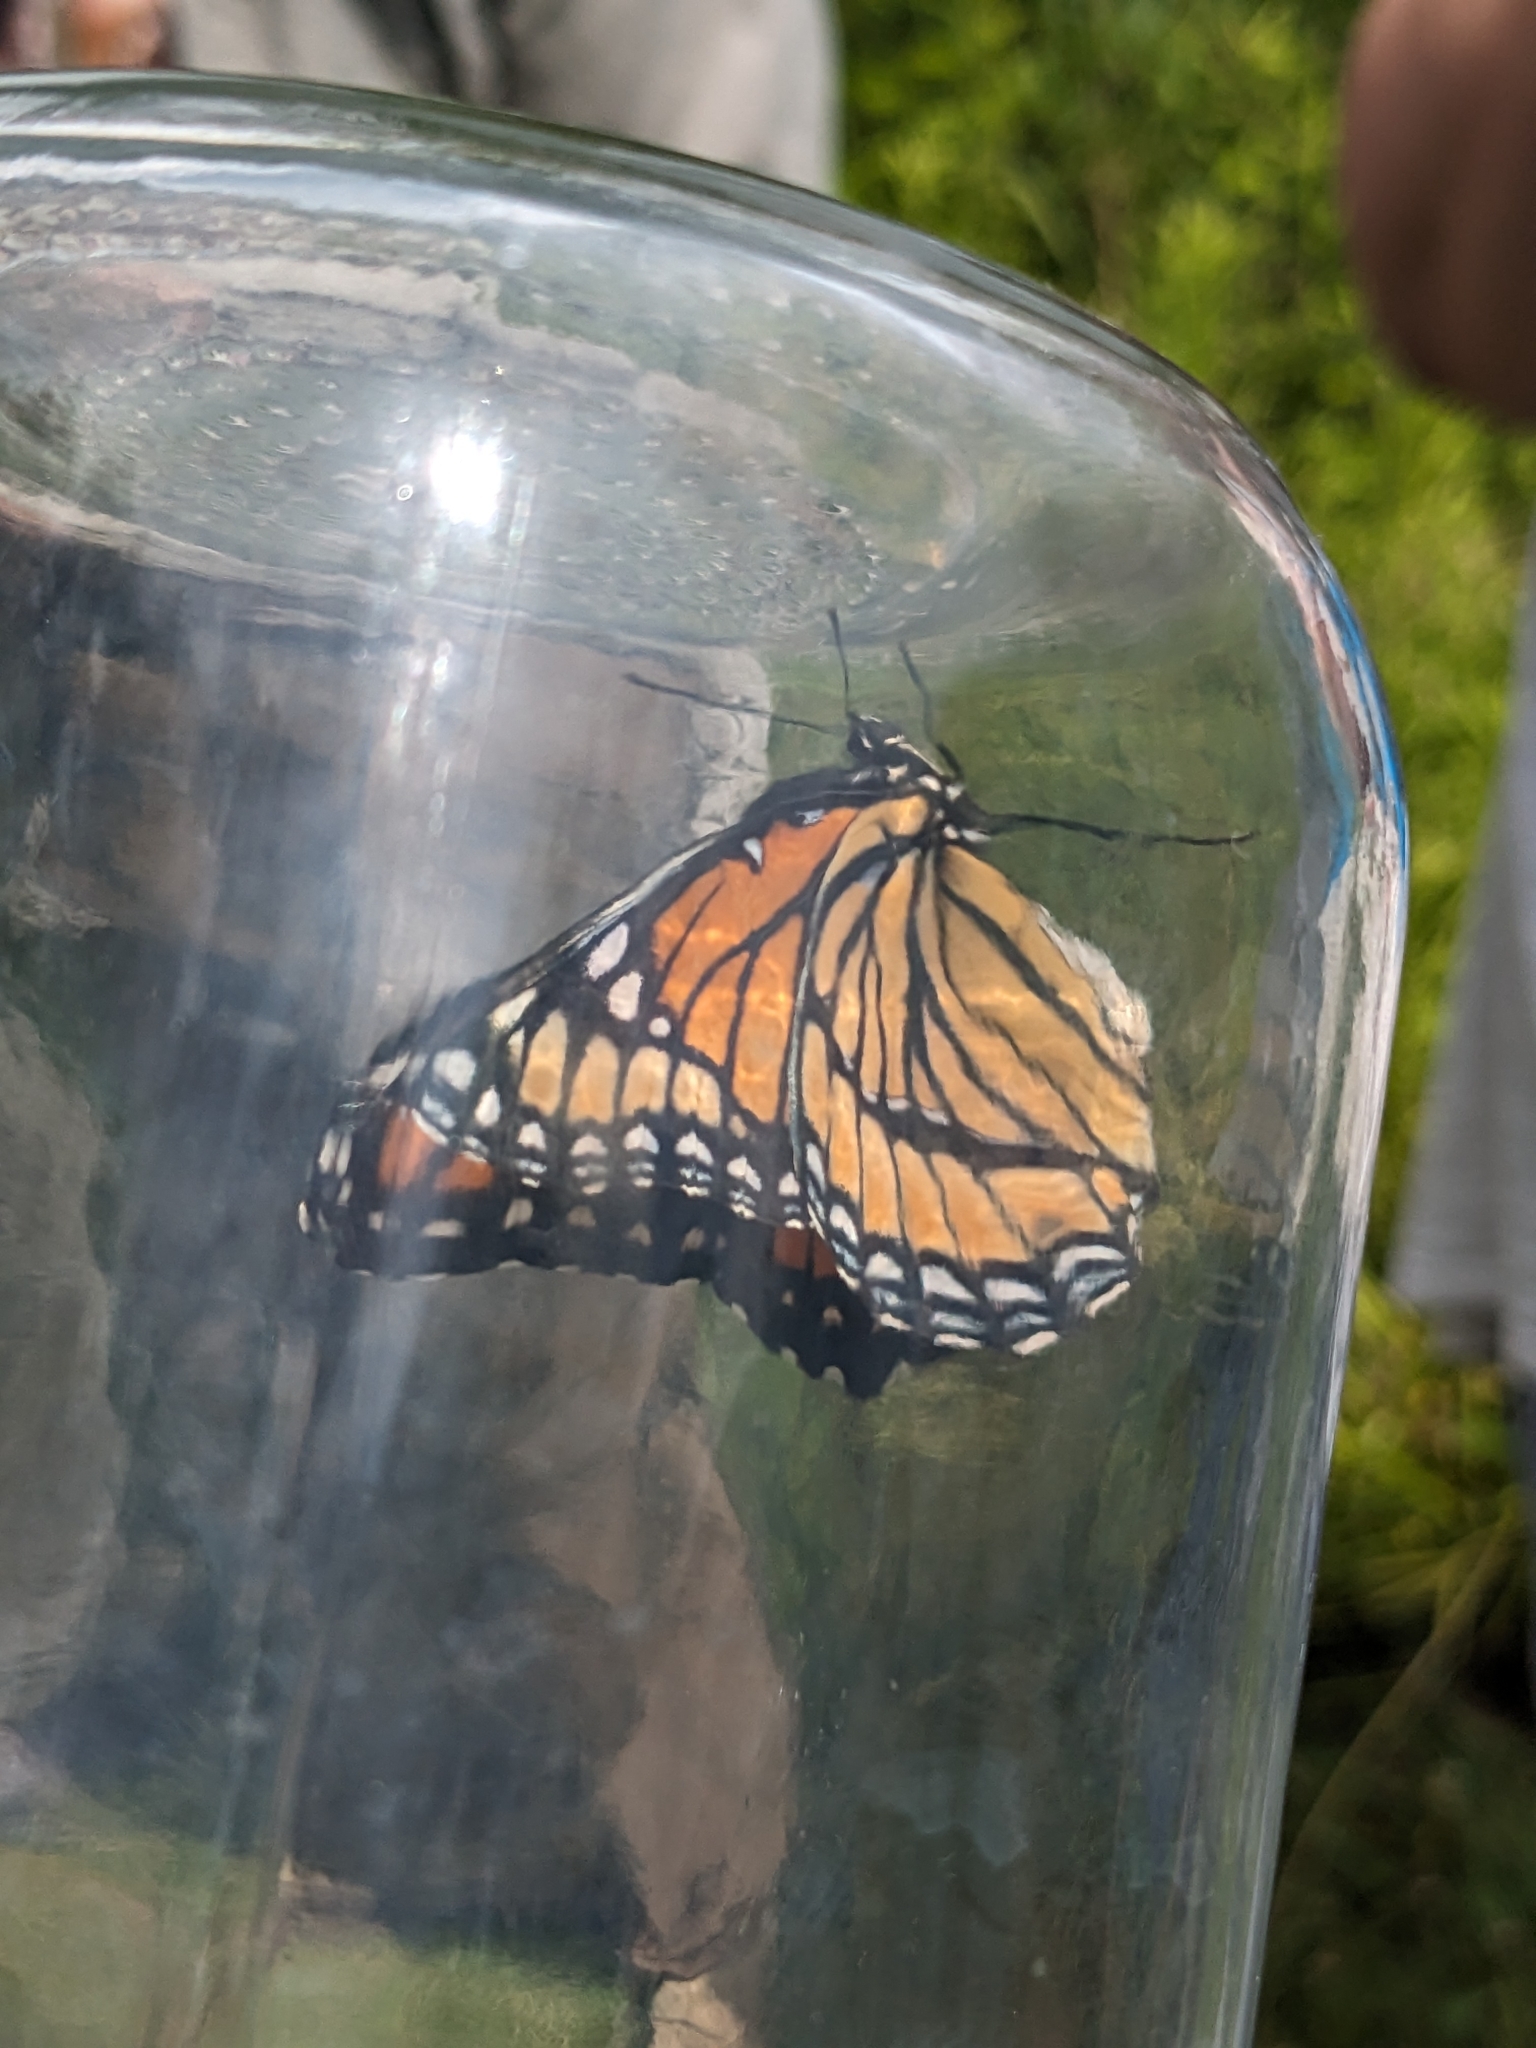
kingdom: Animalia
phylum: Arthropoda
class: Insecta
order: Lepidoptera
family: Nymphalidae
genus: Limenitis
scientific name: Limenitis archippus
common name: Viceroy
